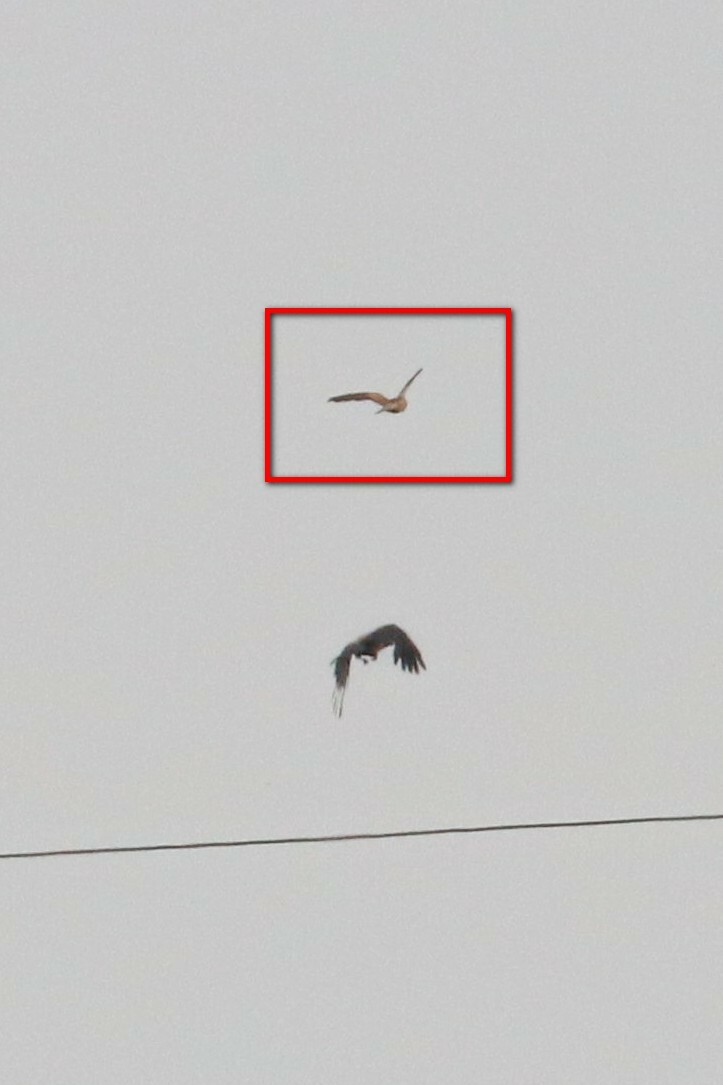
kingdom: Animalia
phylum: Chordata
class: Aves
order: Falconiformes
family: Falconidae
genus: Falco
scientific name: Falco tinnunculus
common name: Common kestrel
